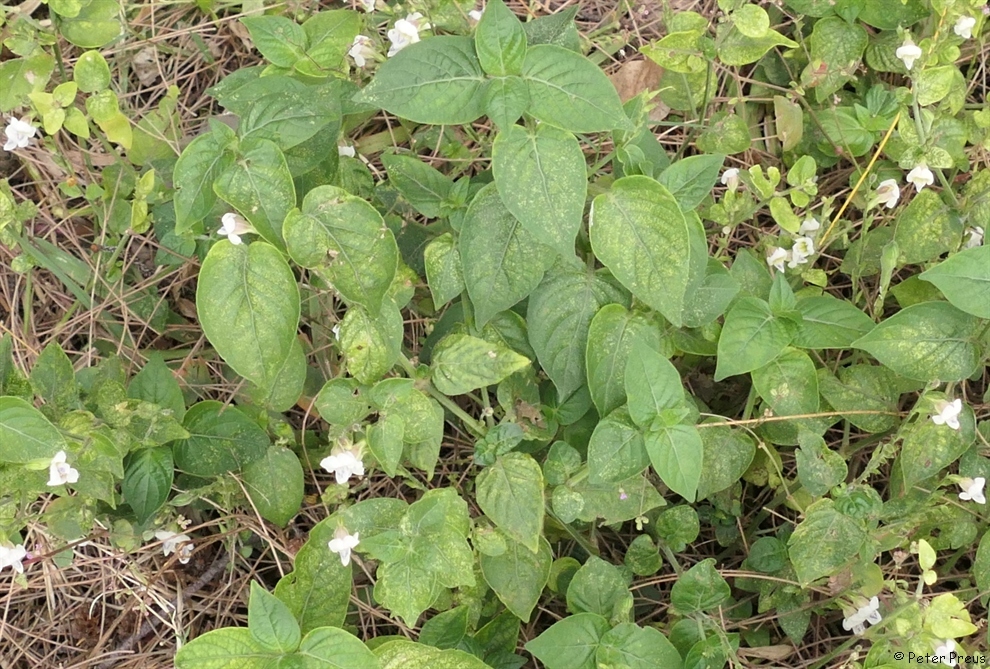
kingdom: Plantae
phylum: Tracheophyta
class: Magnoliopsida
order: Lamiales
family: Acanthaceae
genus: Asystasia
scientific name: Asystasia intrusa
